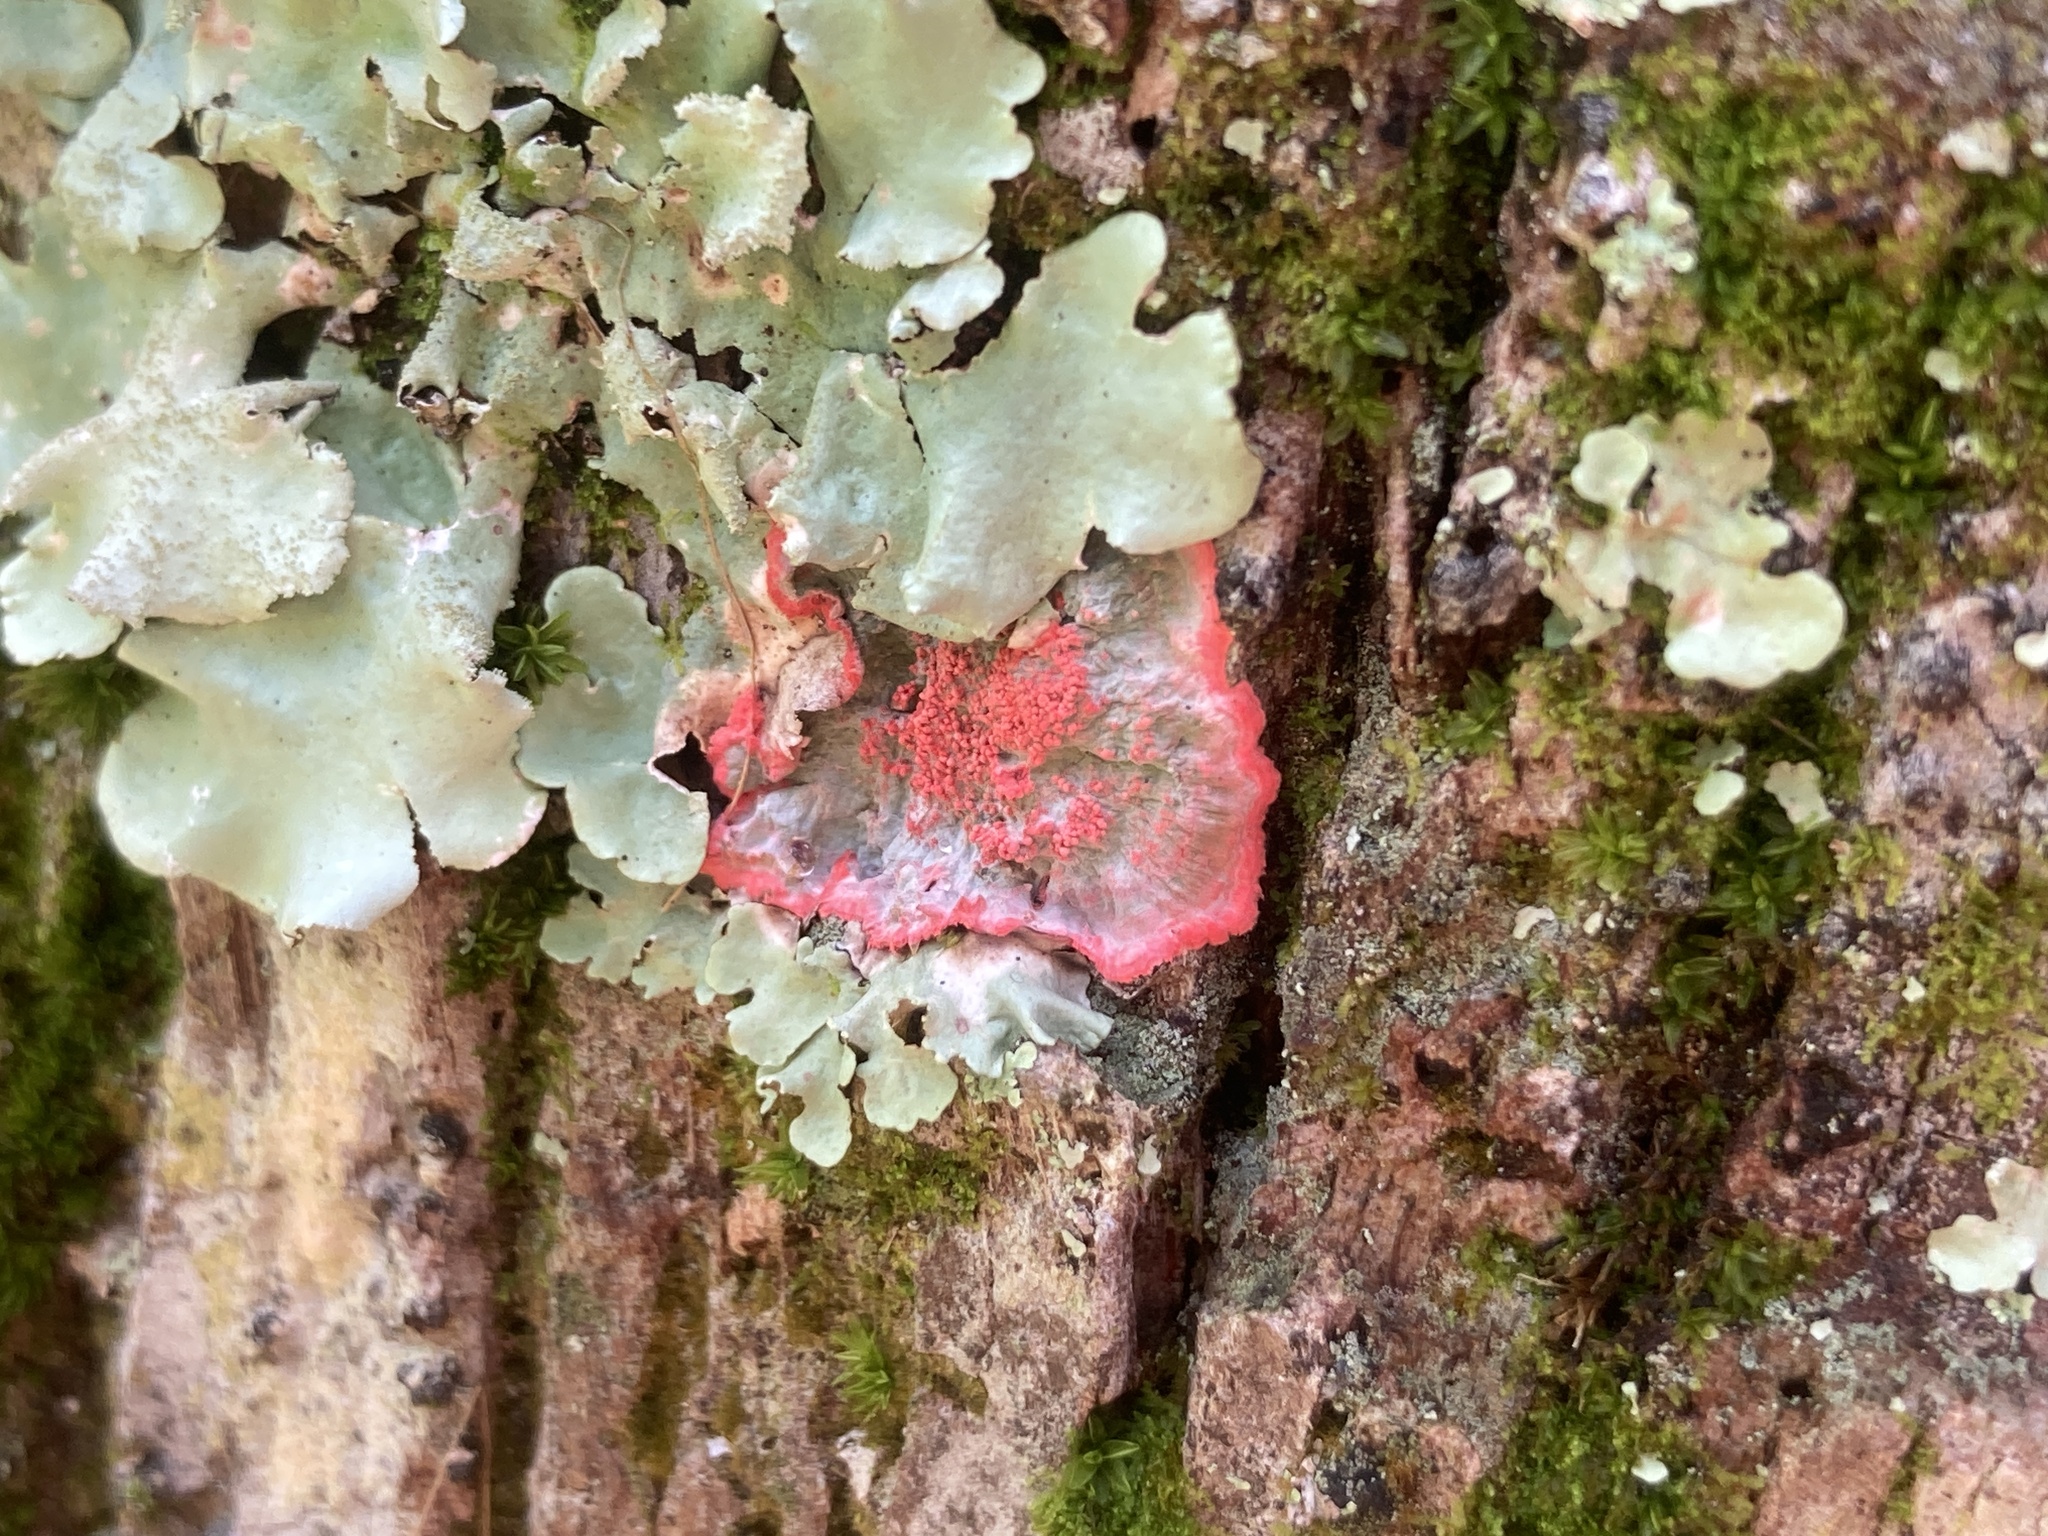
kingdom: Fungi
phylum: Ascomycota
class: Arthoniomycetes
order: Arthoniales
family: Arthoniaceae
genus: Herpothallon
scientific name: Herpothallon rubrocinctum
